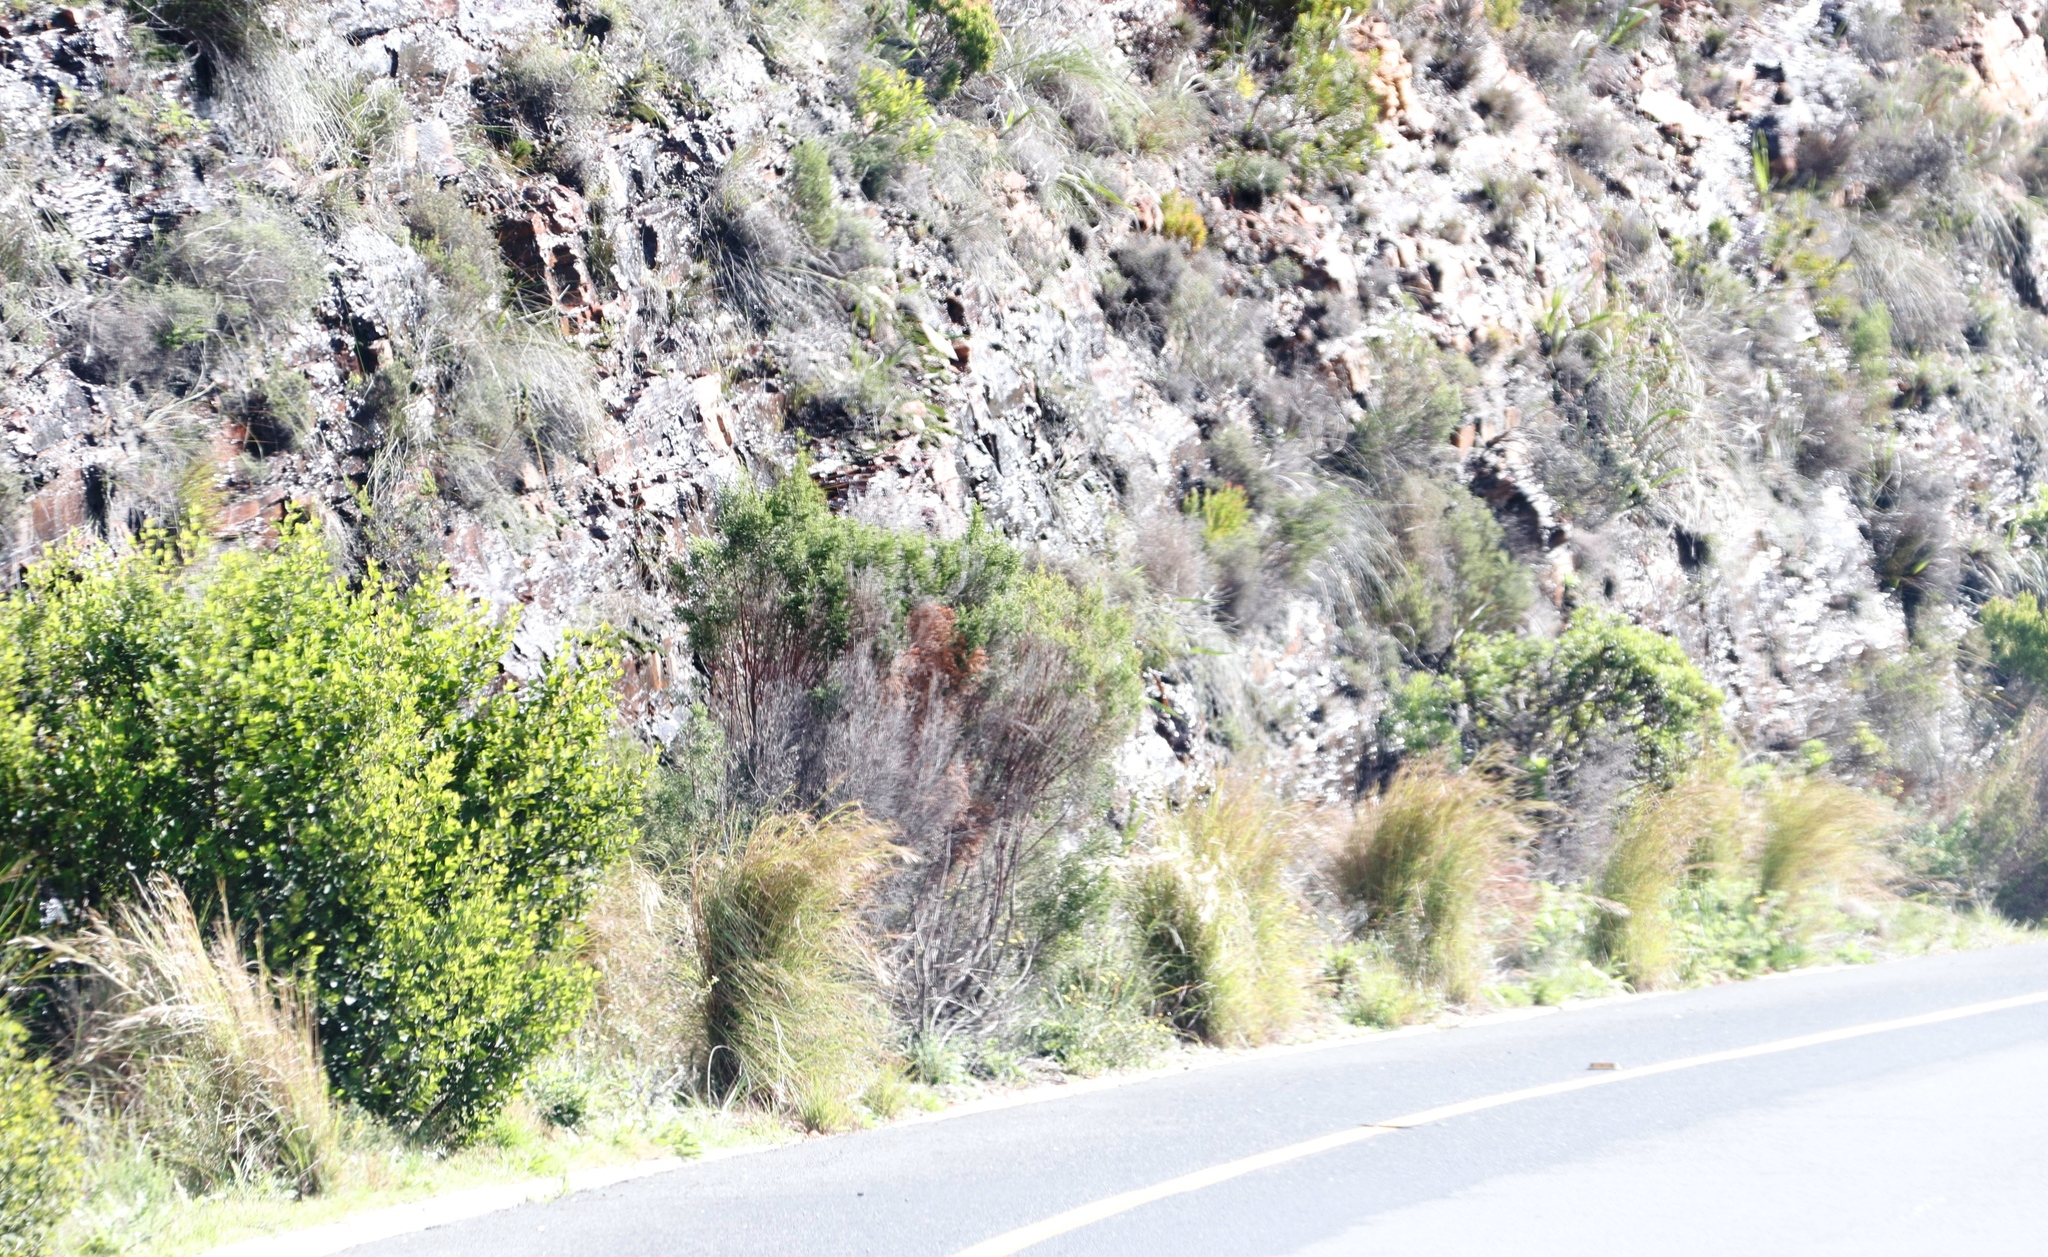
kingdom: Plantae
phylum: Tracheophyta
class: Liliopsida
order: Poales
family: Poaceae
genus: Hyparrhenia
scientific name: Hyparrhenia hirta
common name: Thatching grass
